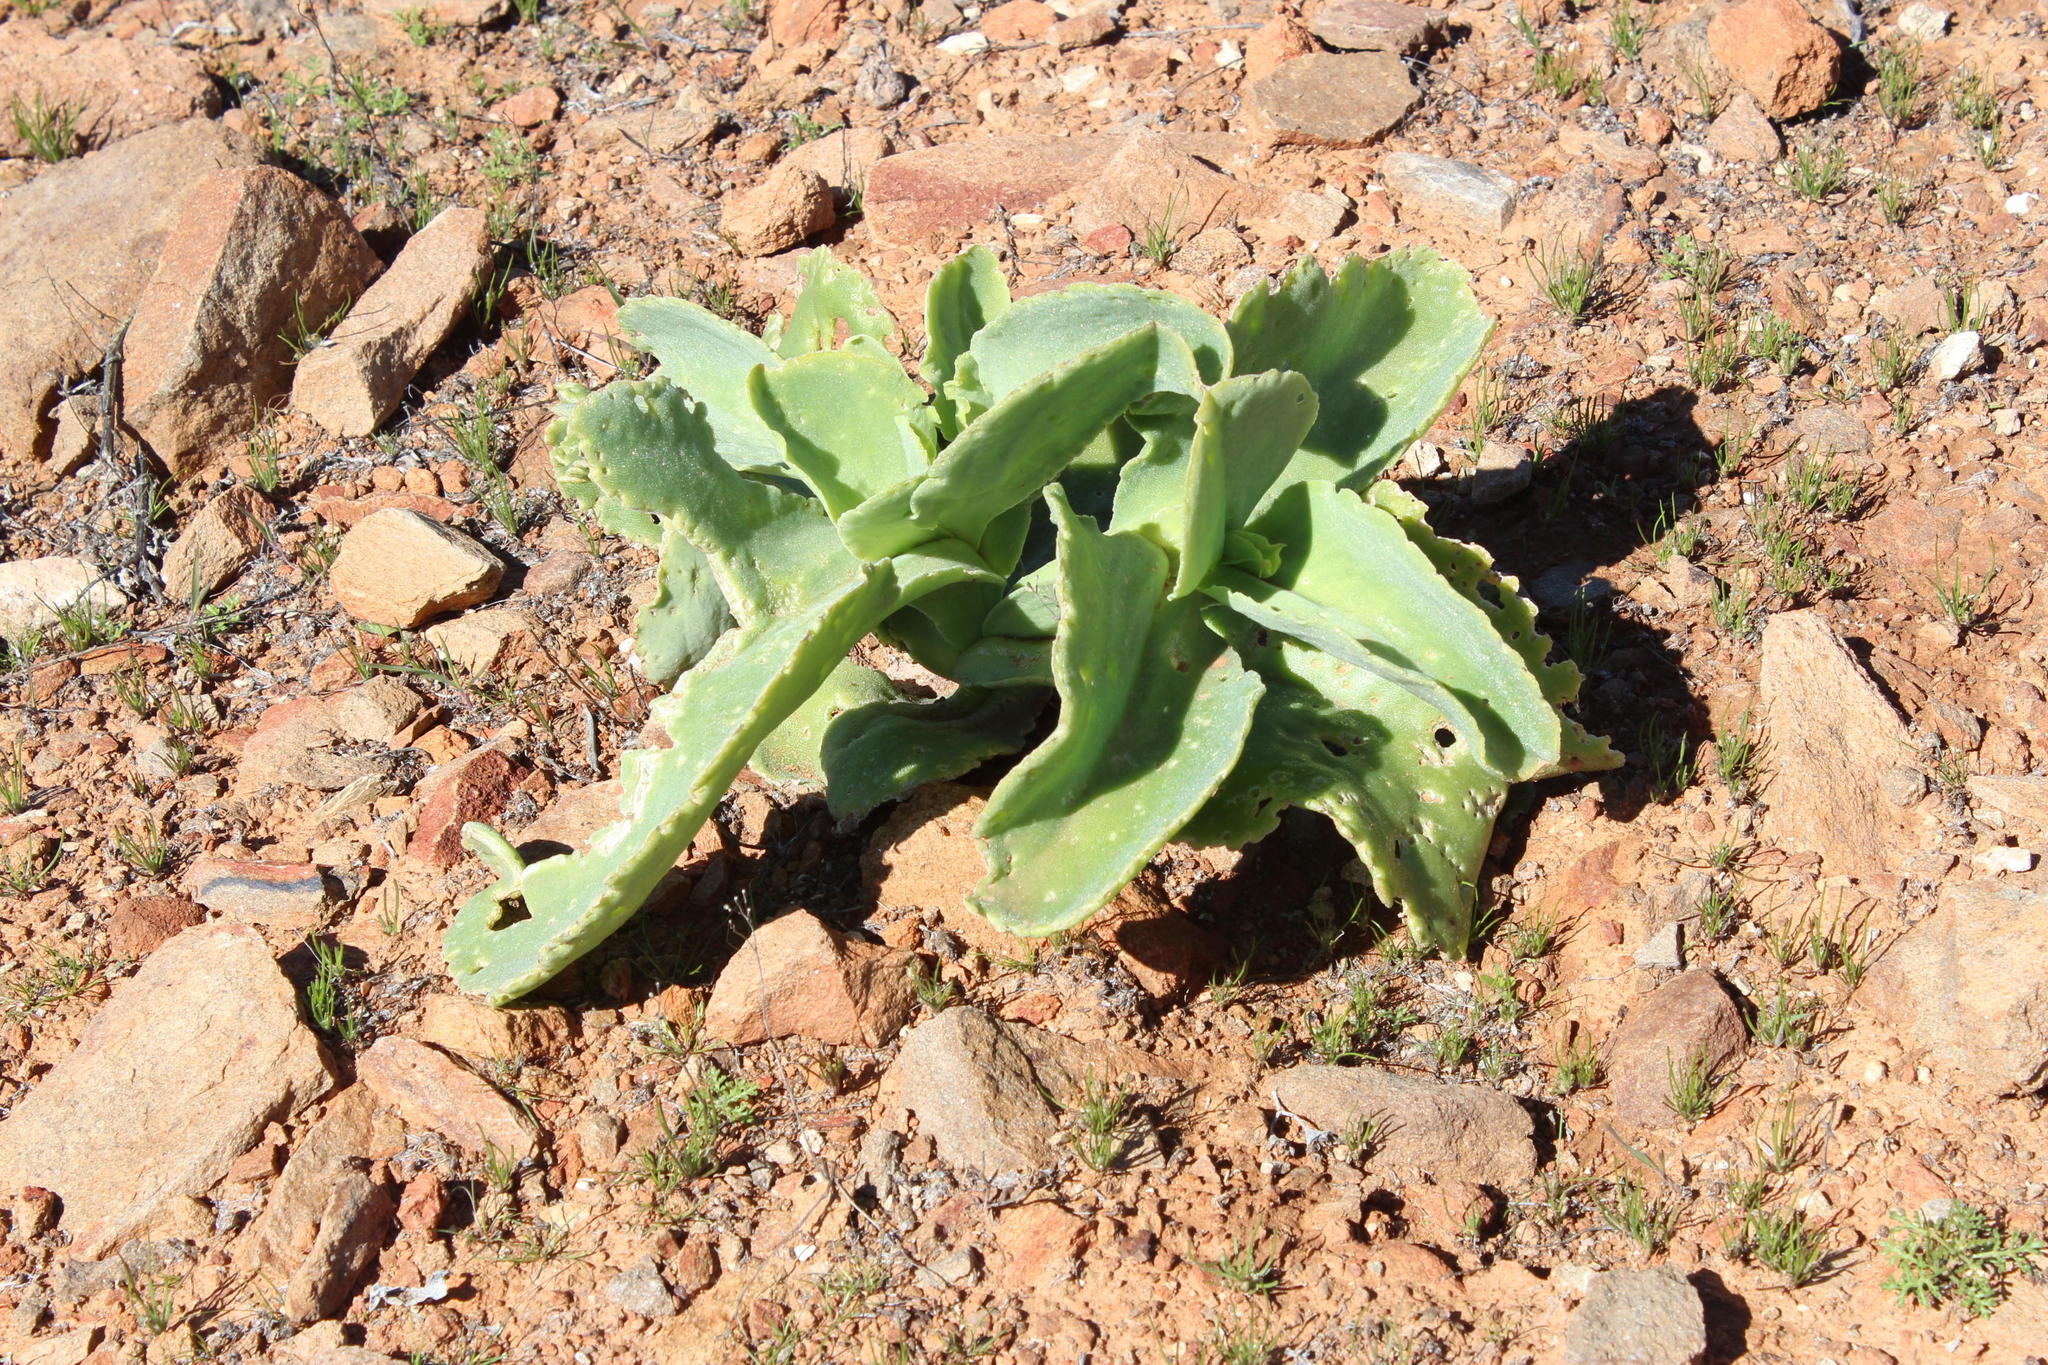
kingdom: Plantae
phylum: Tracheophyta
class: Magnoliopsida
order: Caryophyllales
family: Aizoaceae
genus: Mesembryanthemum
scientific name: Mesembryanthemum barklyi
